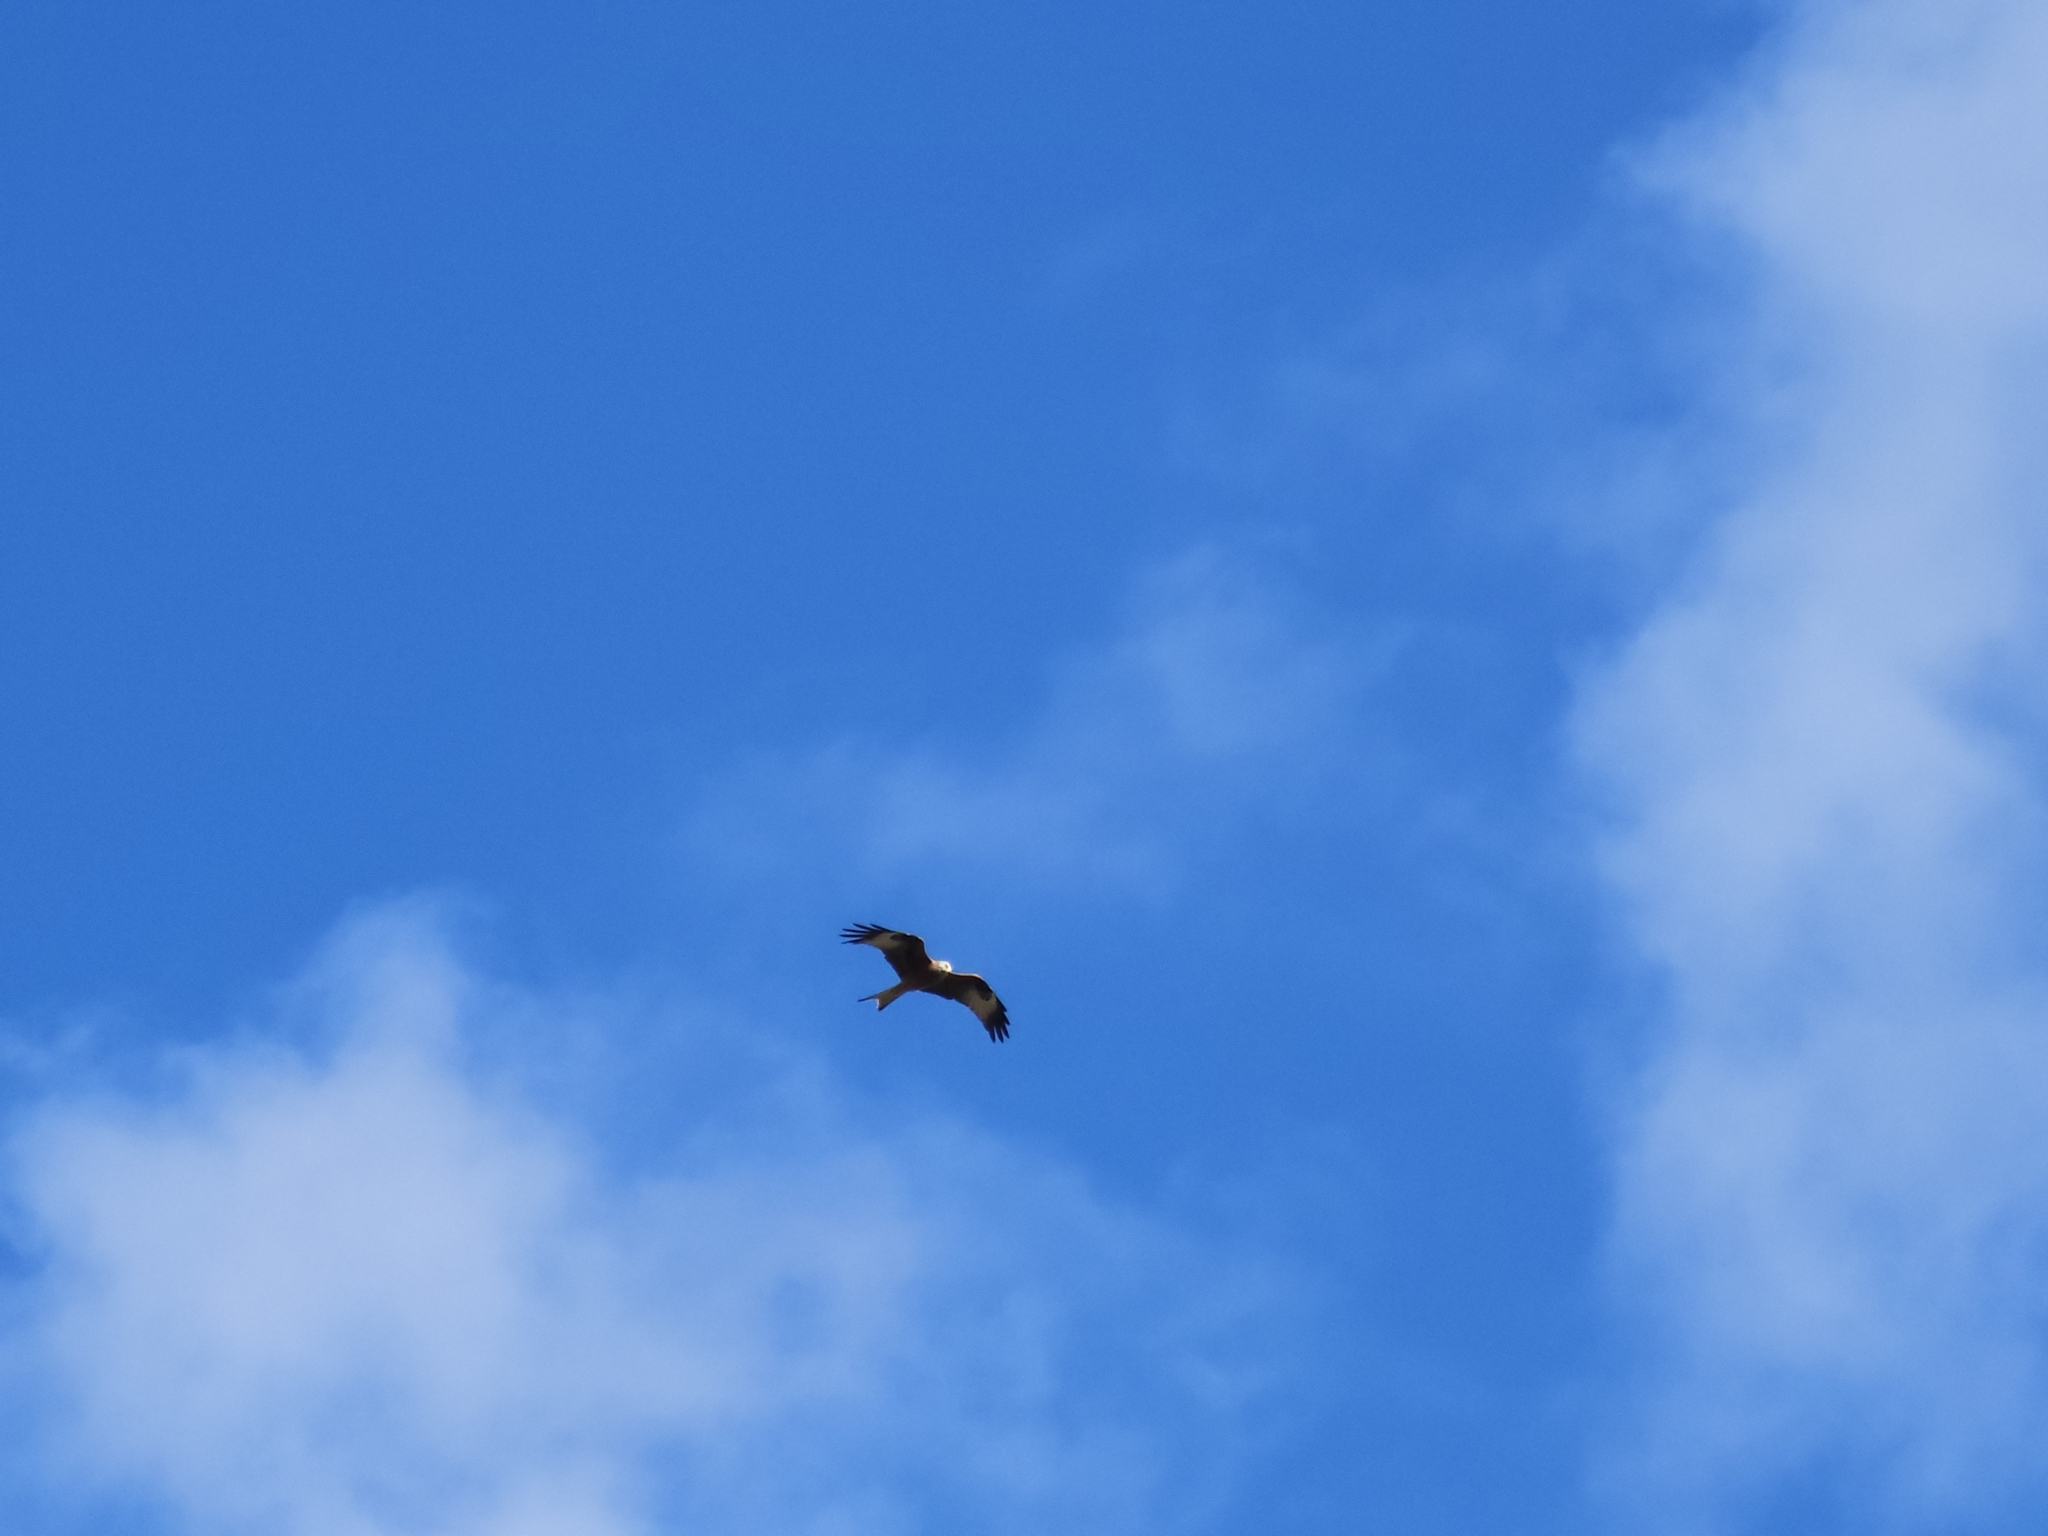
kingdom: Animalia
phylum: Chordata
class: Aves
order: Accipitriformes
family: Accipitridae
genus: Milvus
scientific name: Milvus milvus
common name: Red kite
